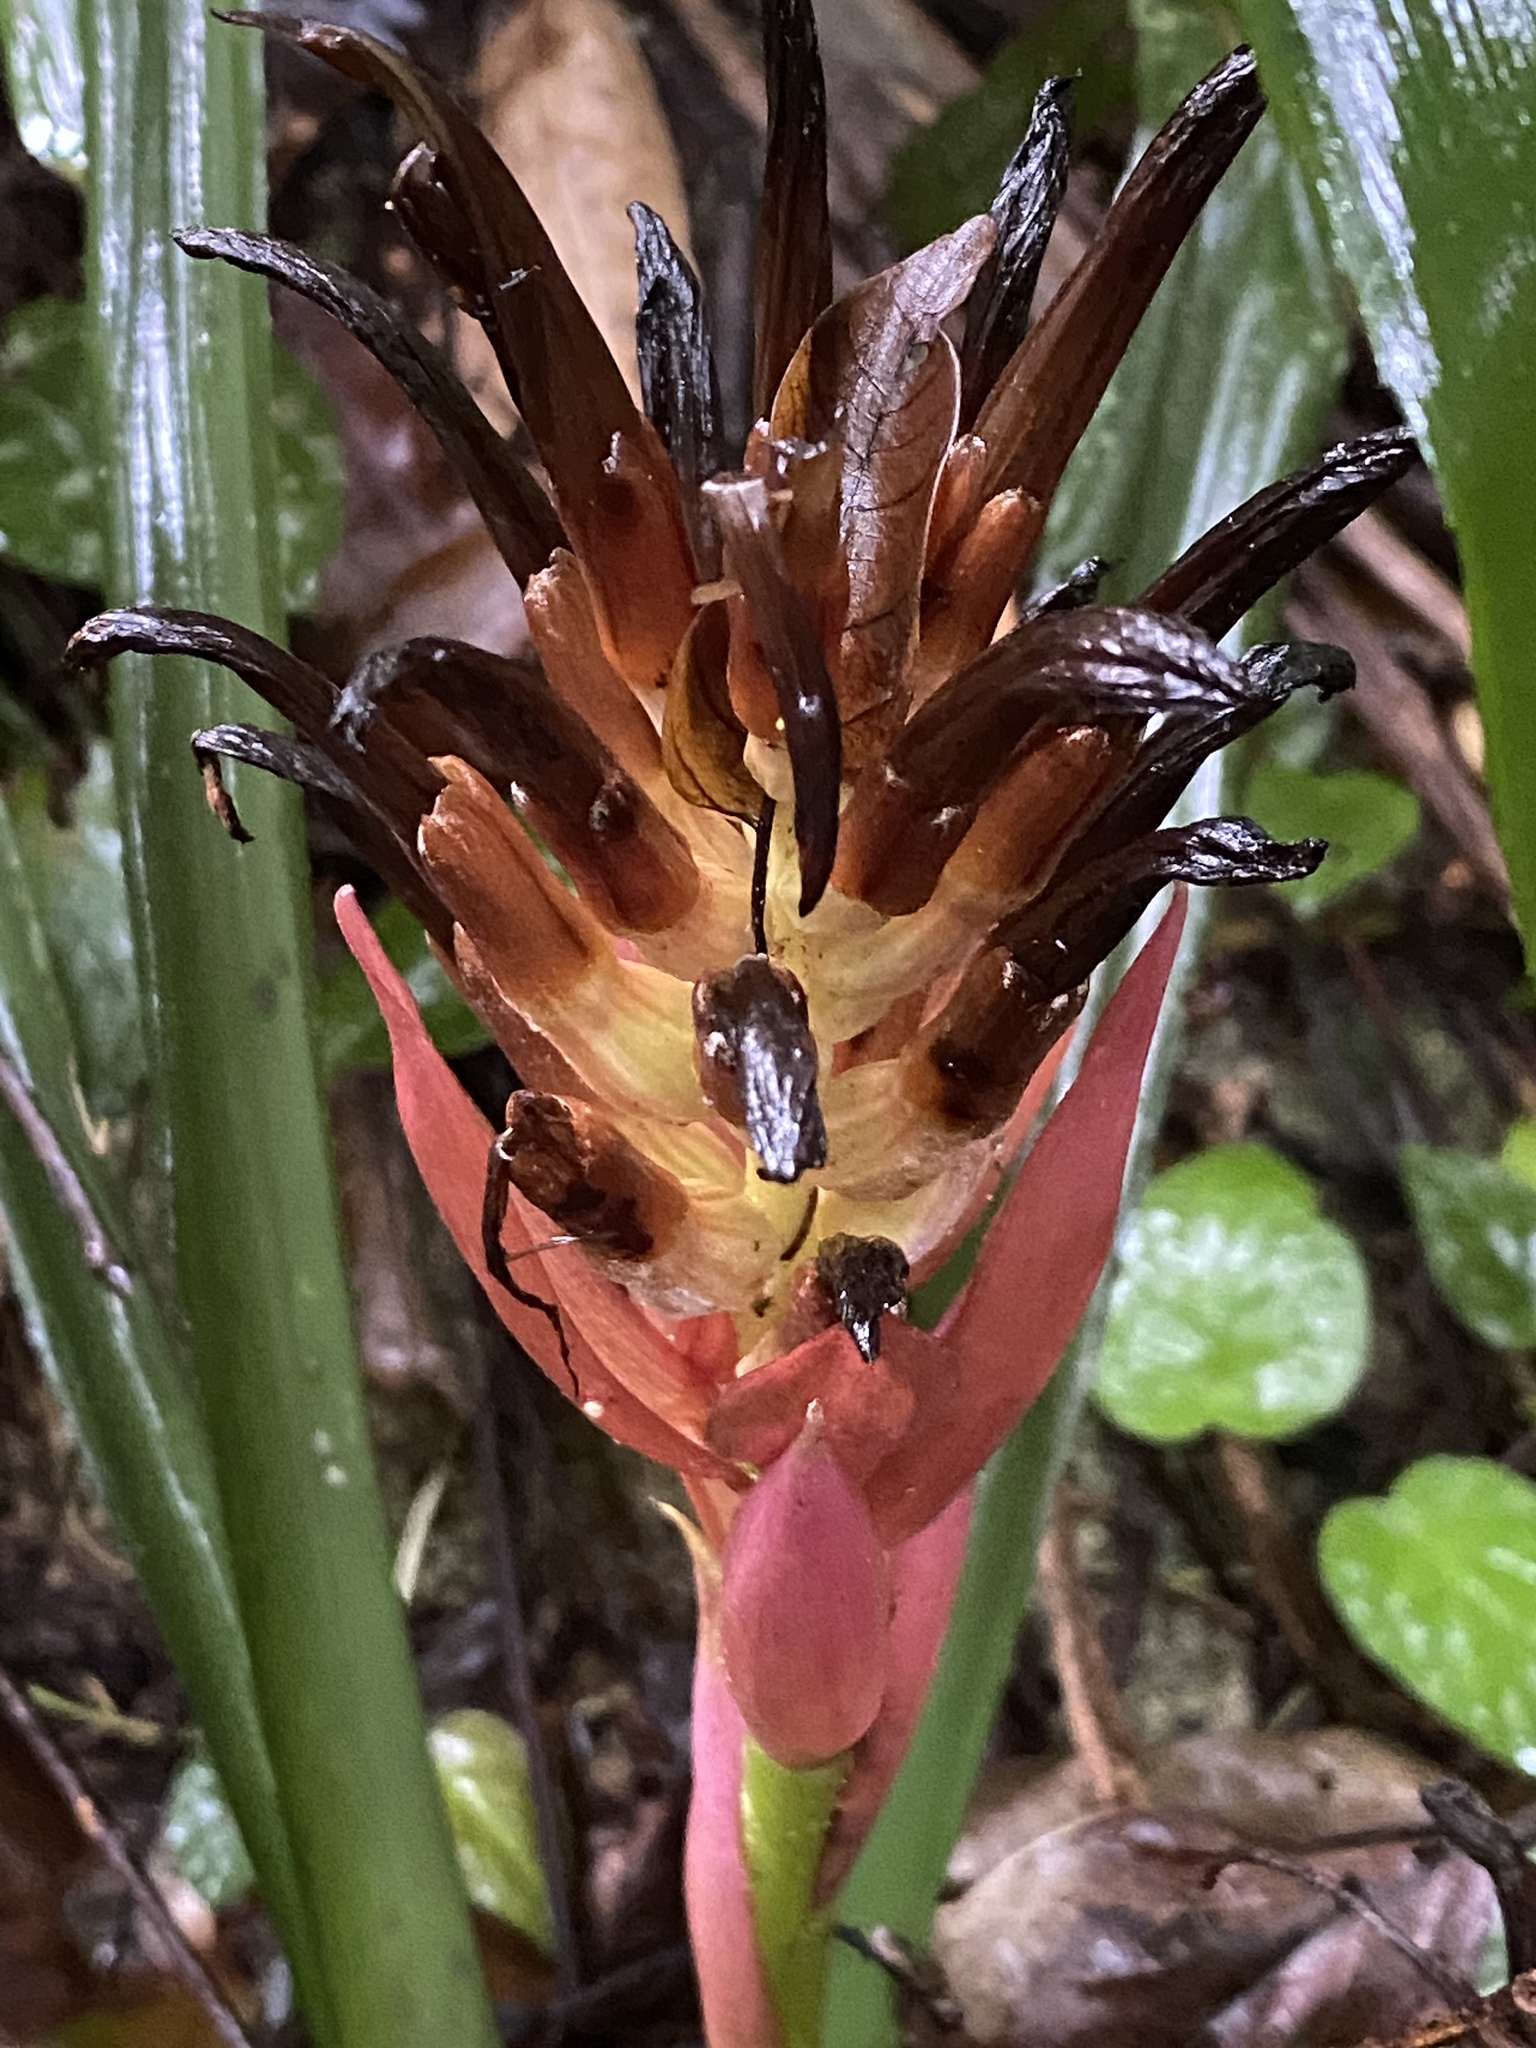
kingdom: Plantae
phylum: Tracheophyta
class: Liliopsida
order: Poales
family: Bromeliaceae
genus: Billbergia
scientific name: Billbergia pyramidalis
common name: Foolproofplant
